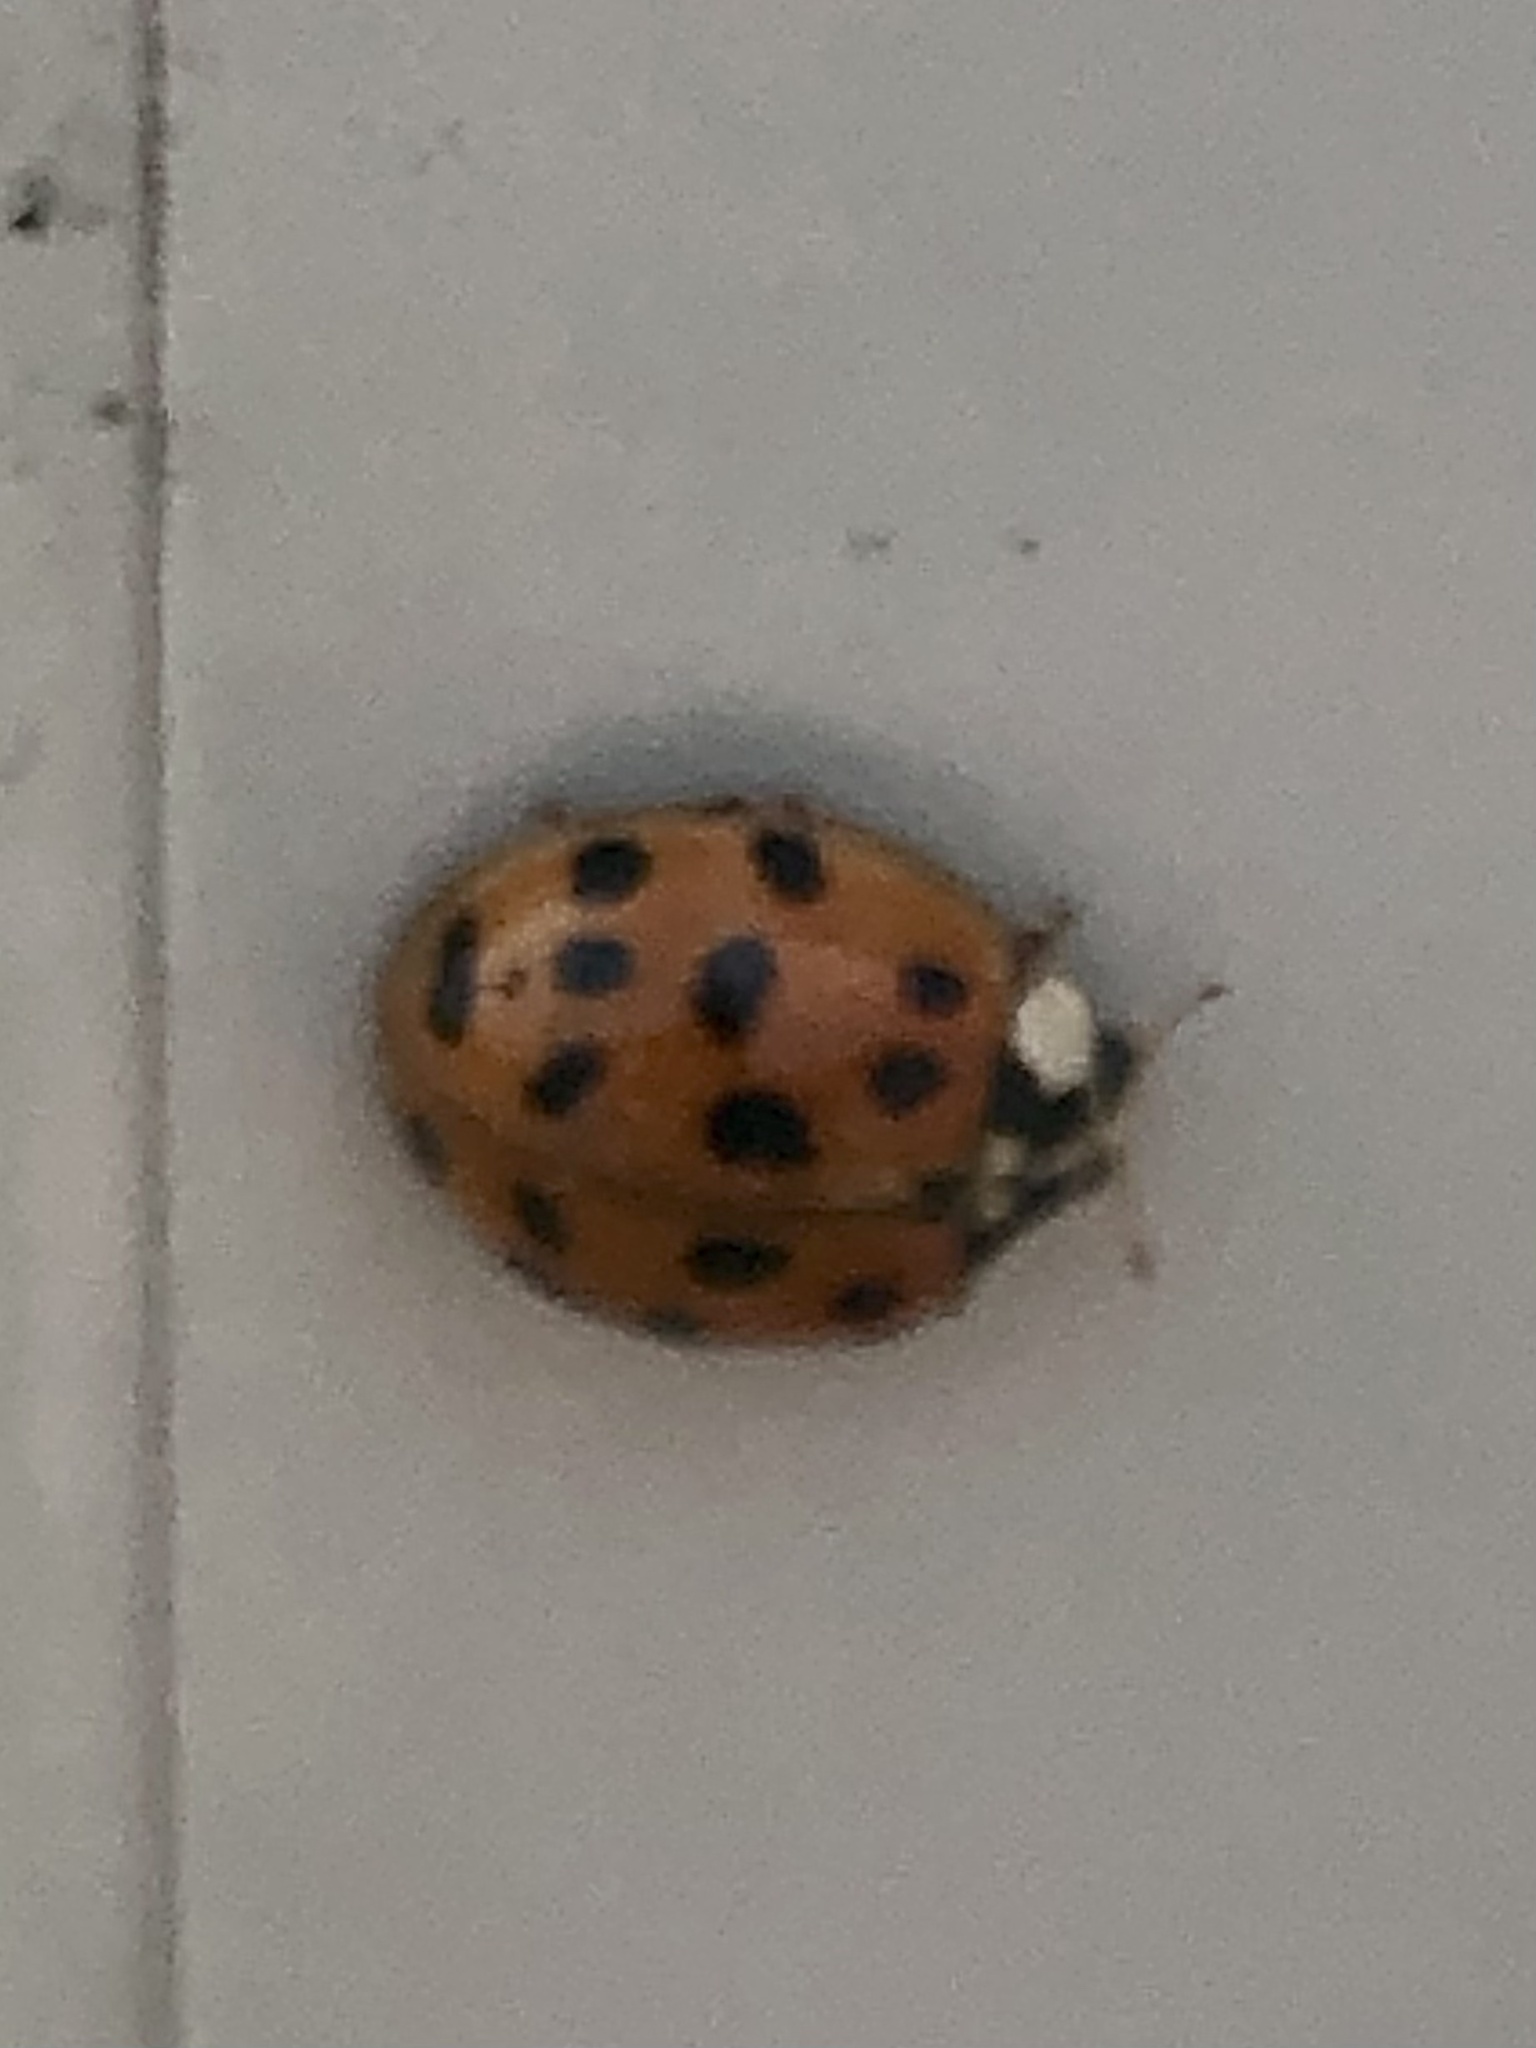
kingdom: Animalia
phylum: Arthropoda
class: Insecta
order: Coleoptera
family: Coccinellidae
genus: Harmonia
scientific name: Harmonia axyridis
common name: Harlequin ladybird
